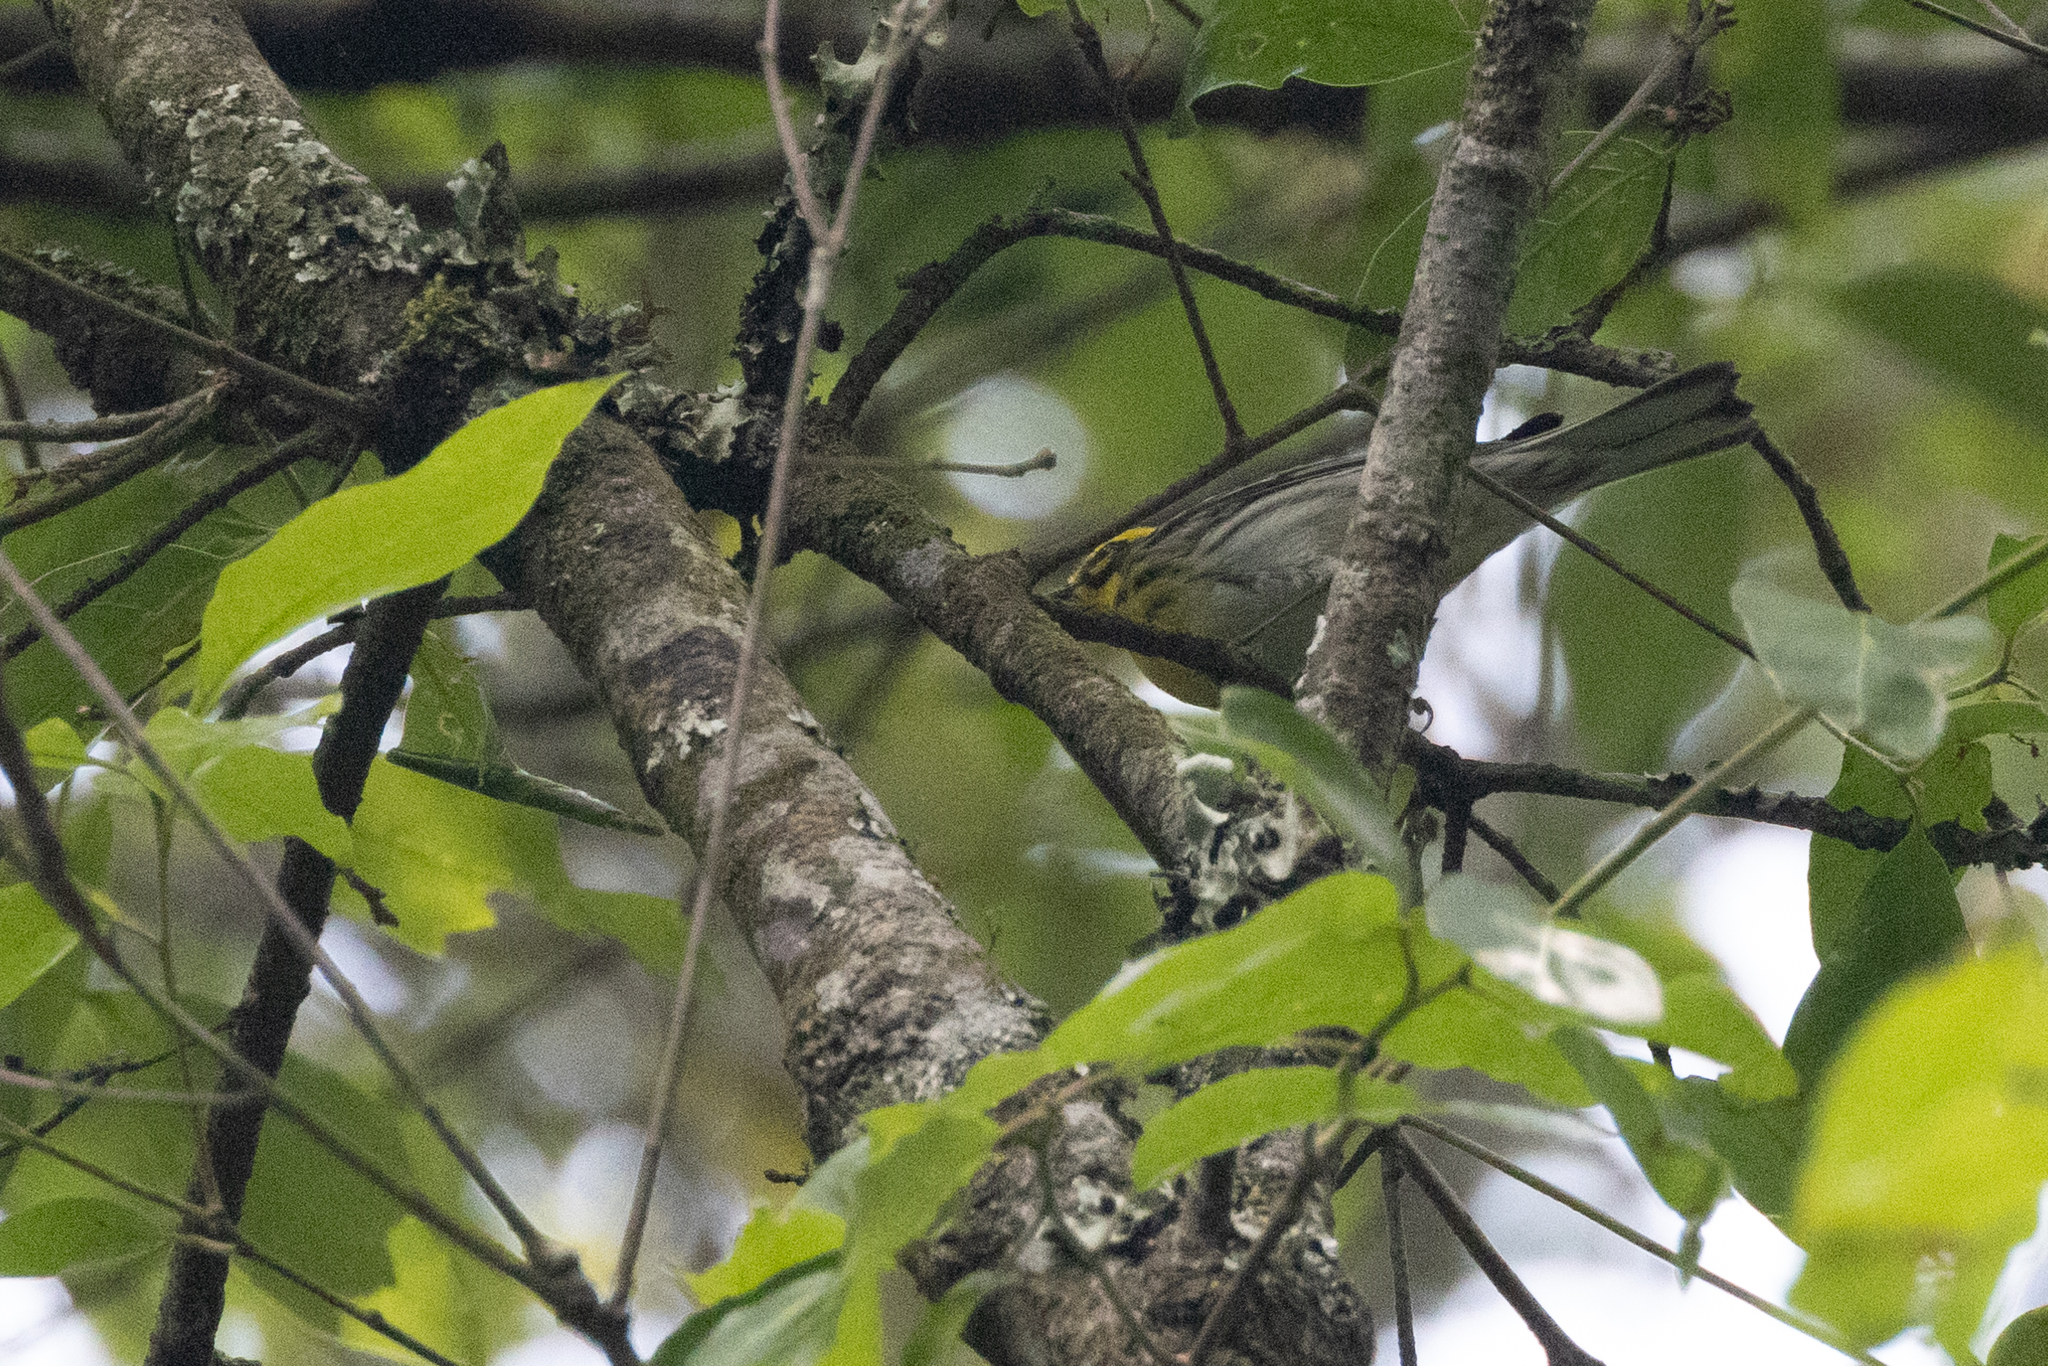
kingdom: Animalia
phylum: Chordata
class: Aves
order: Passeriformes
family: Parulidae
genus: Setophaga
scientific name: Setophaga townsendi
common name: Townsend's warbler
